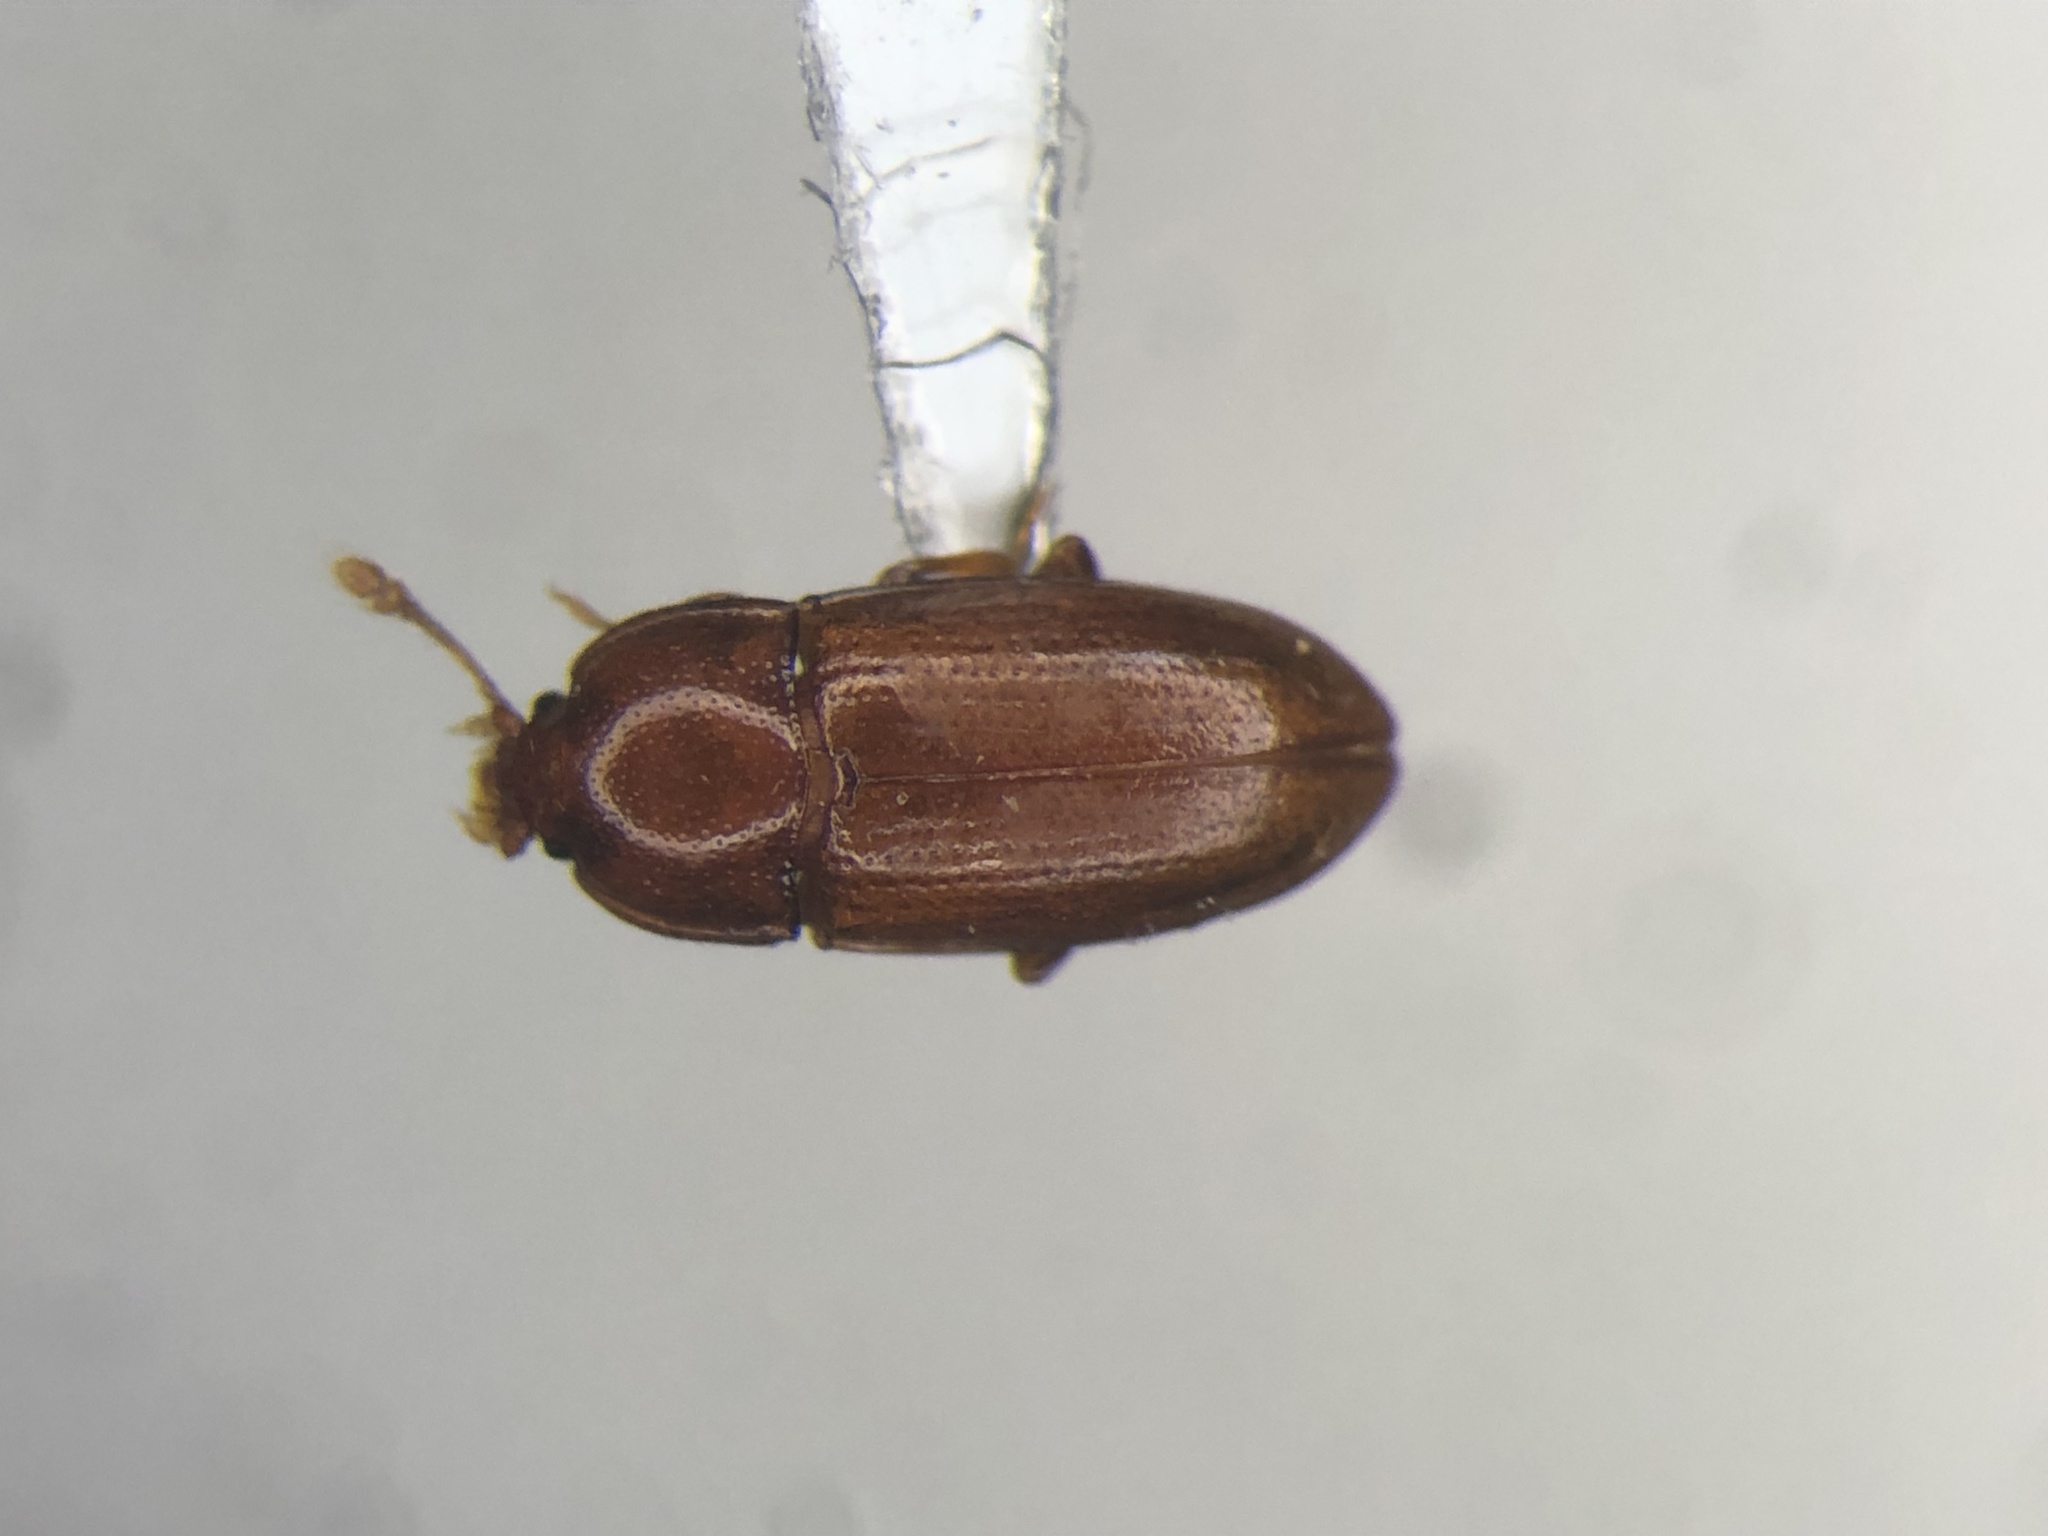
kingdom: Animalia
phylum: Arthropoda
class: Insecta
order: Coleoptera
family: Cerylonidae
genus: Philothermus
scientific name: Philothermus glabriculus
